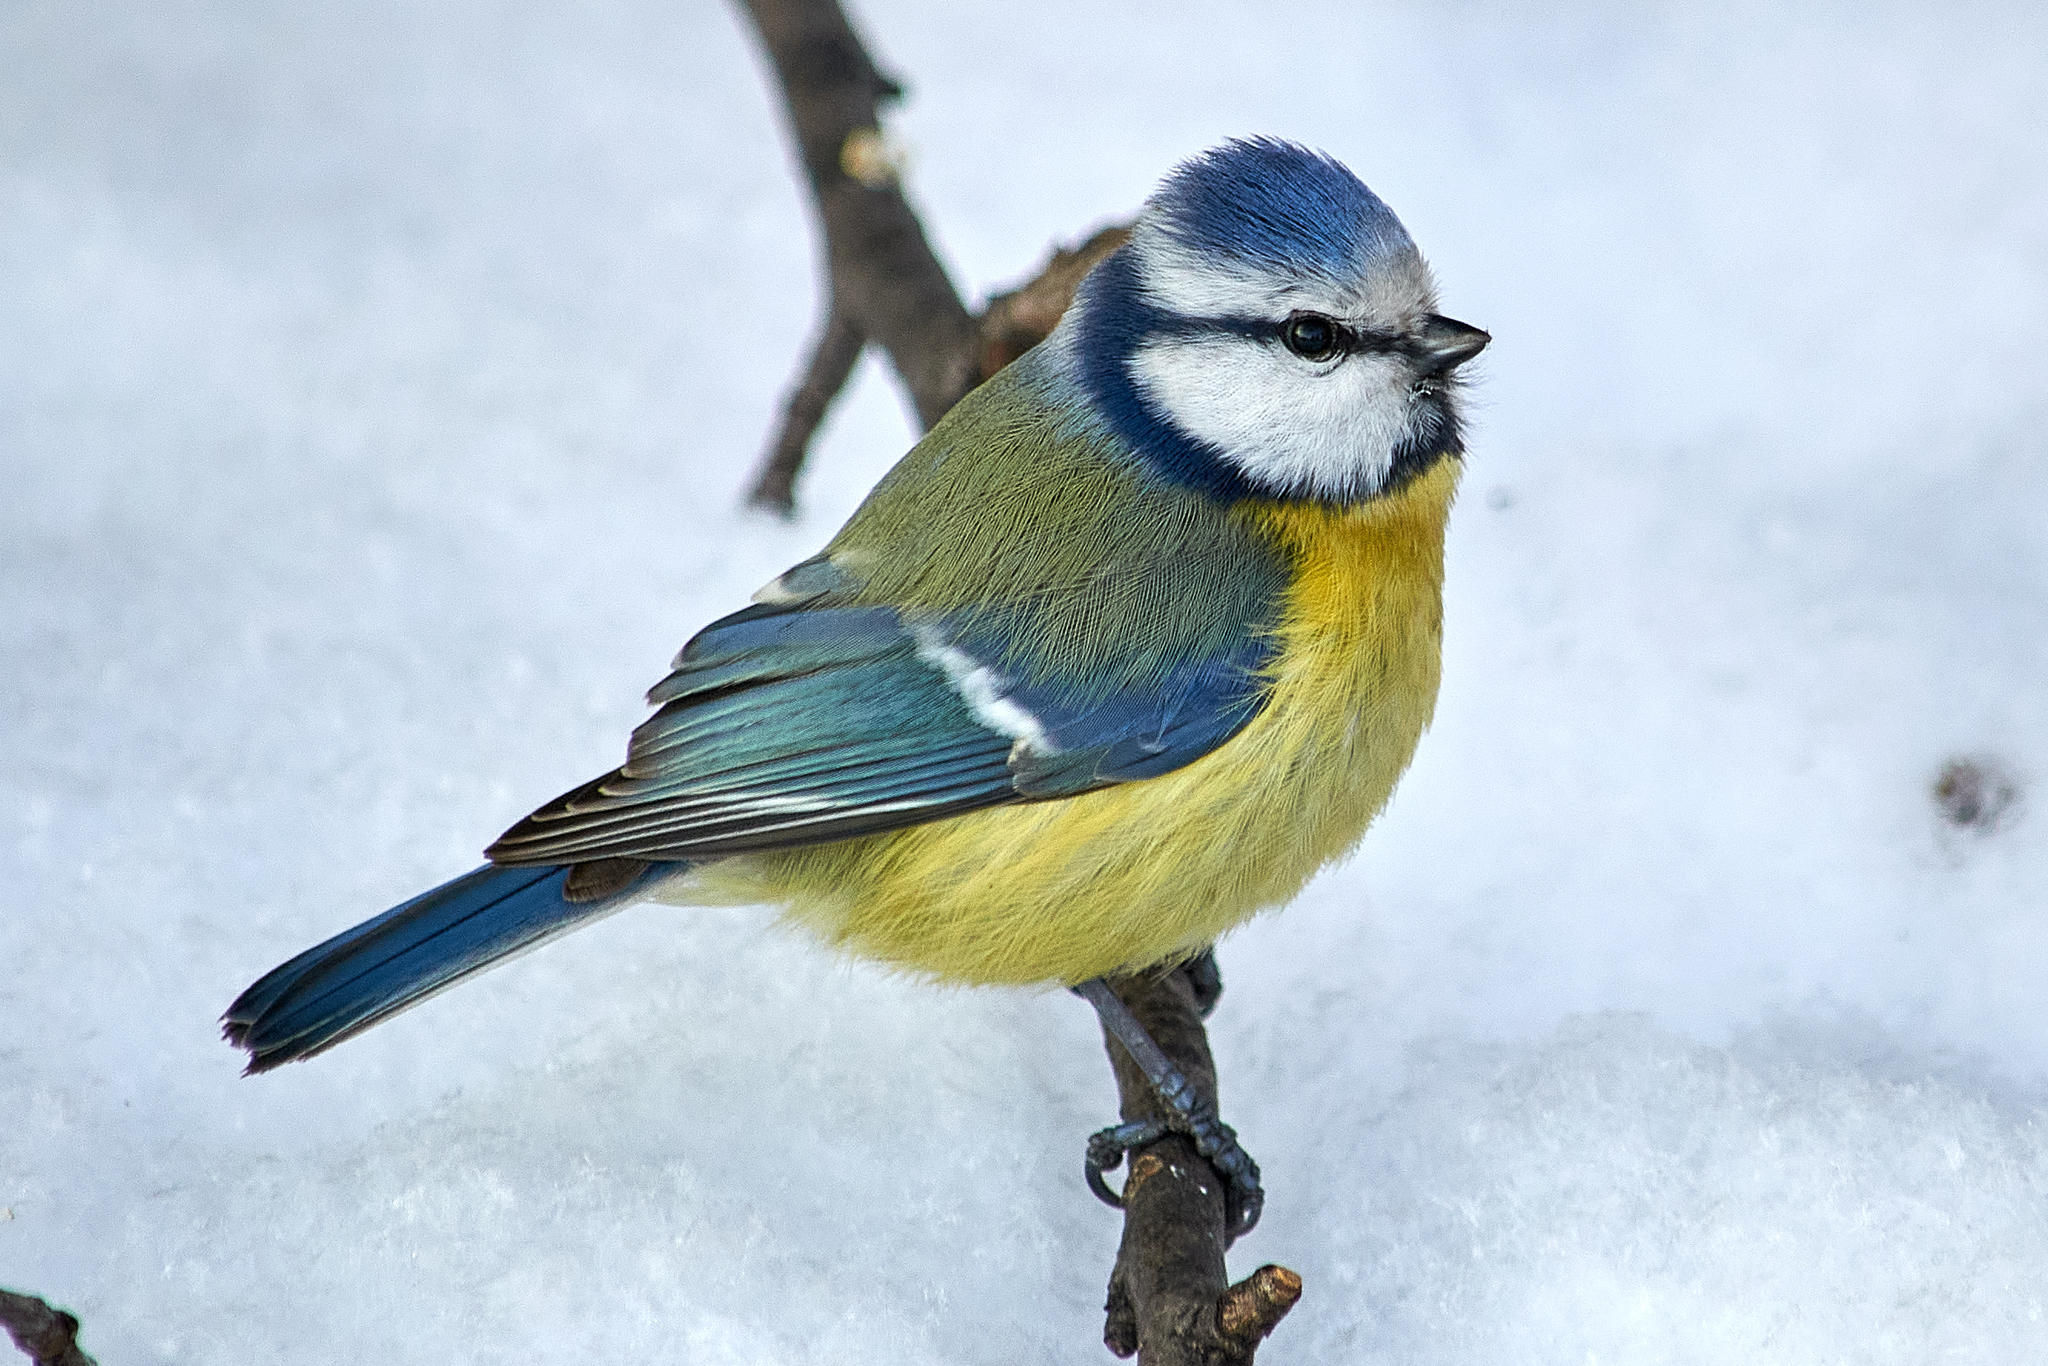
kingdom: Animalia
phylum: Chordata
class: Aves
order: Passeriformes
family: Paridae
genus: Cyanistes
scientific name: Cyanistes caeruleus
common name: Eurasian blue tit
